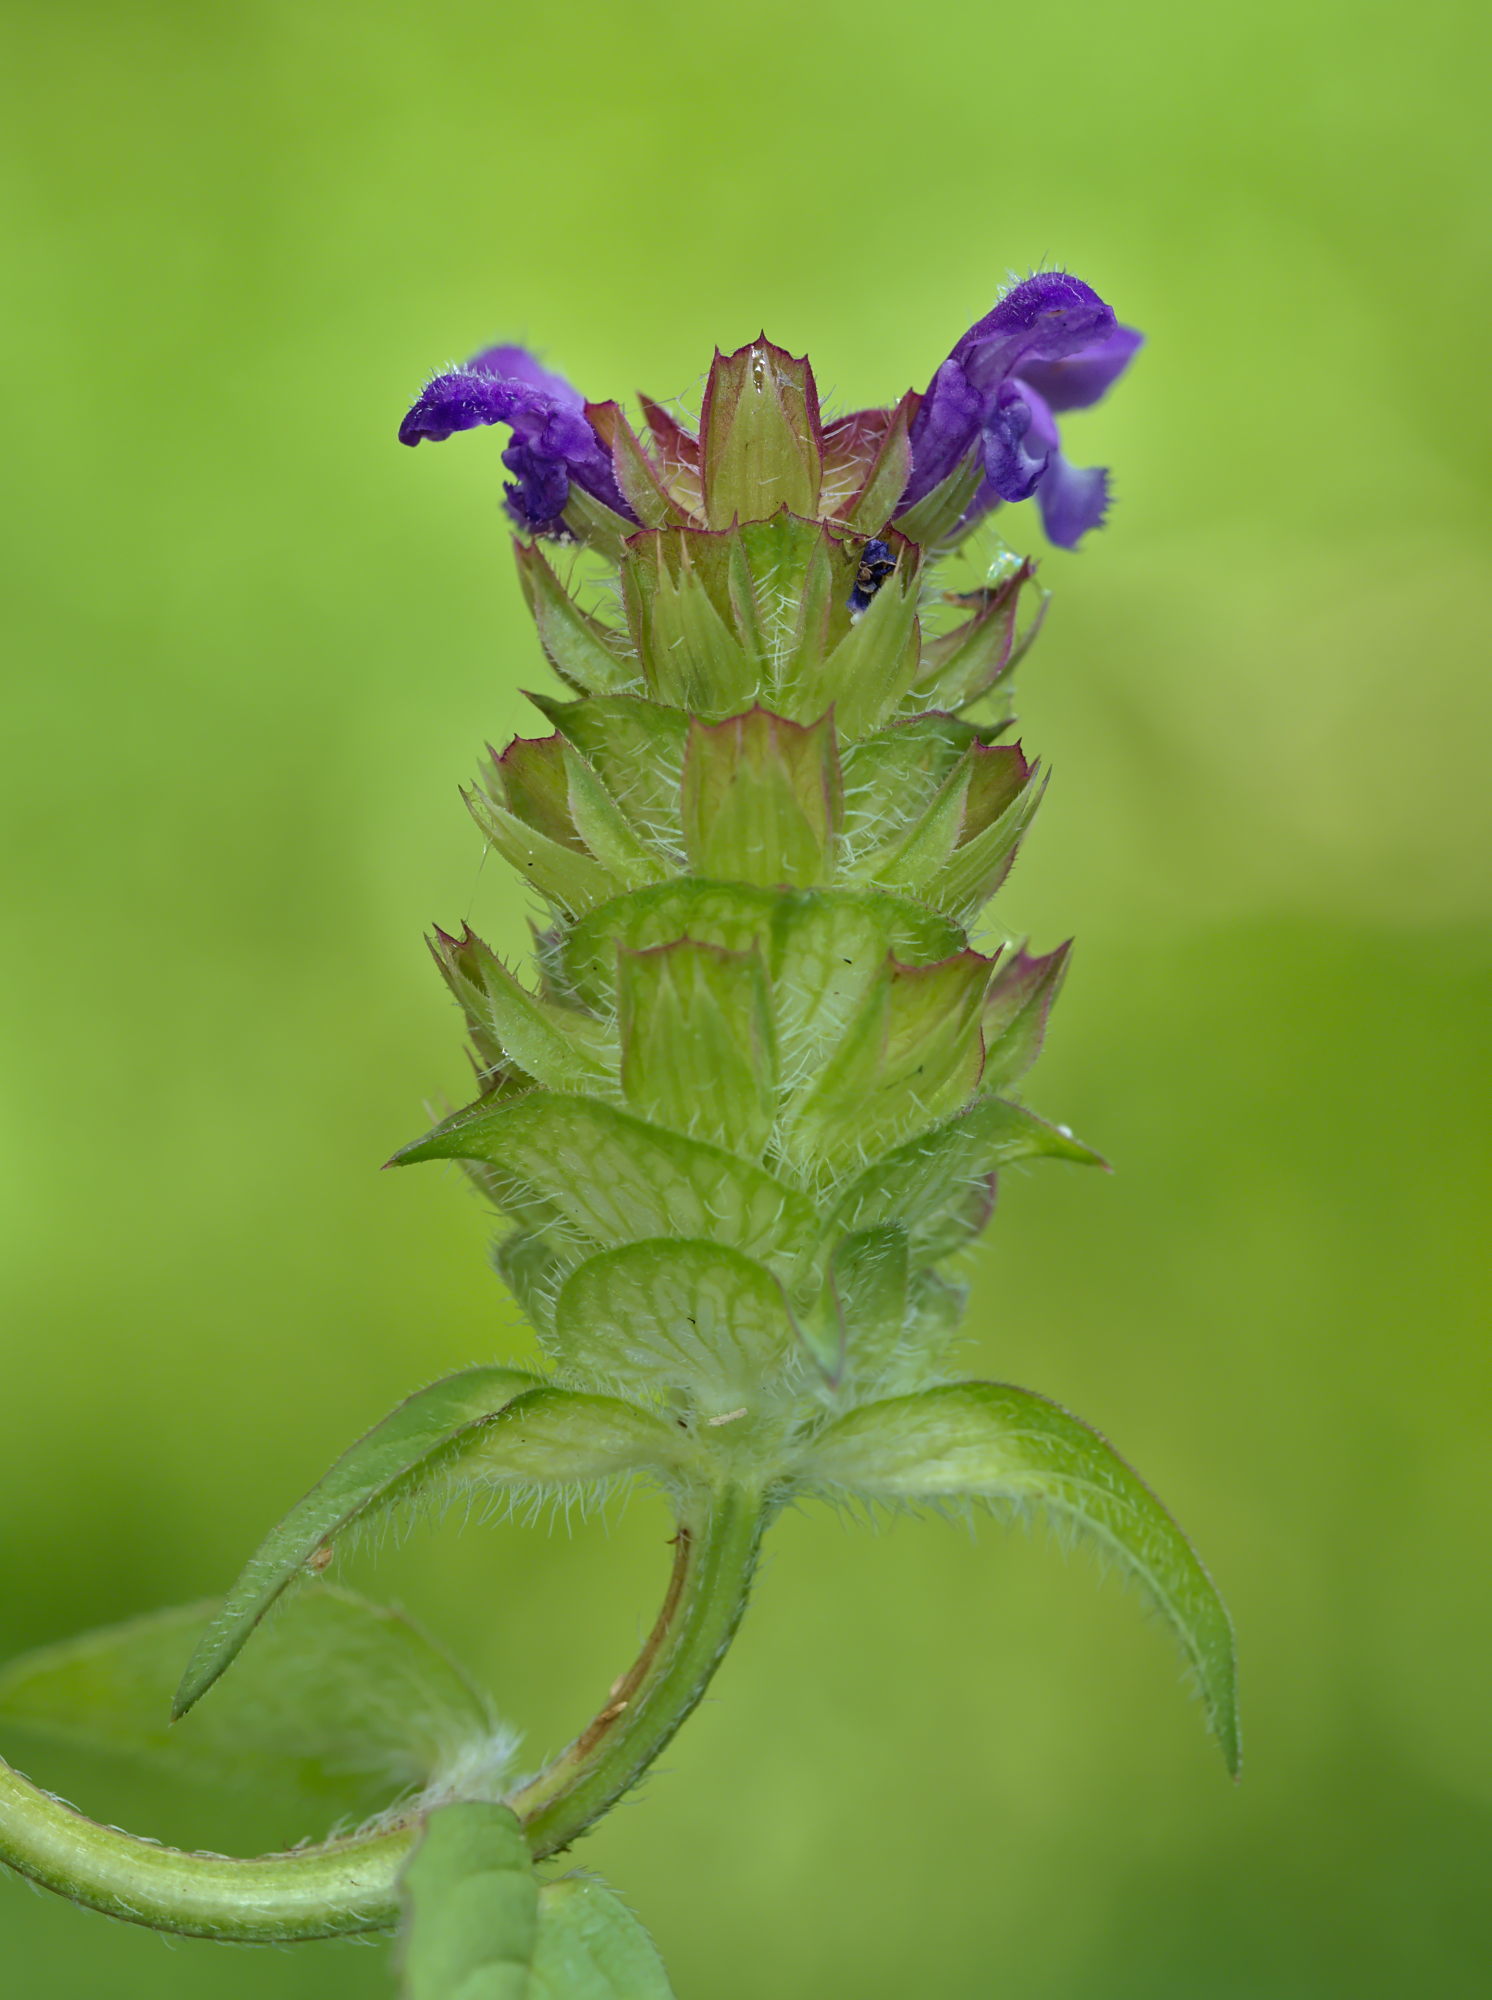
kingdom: Plantae
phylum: Tracheophyta
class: Magnoliopsida
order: Lamiales
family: Lamiaceae
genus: Prunella
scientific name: Prunella vulgaris
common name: Heal-all
